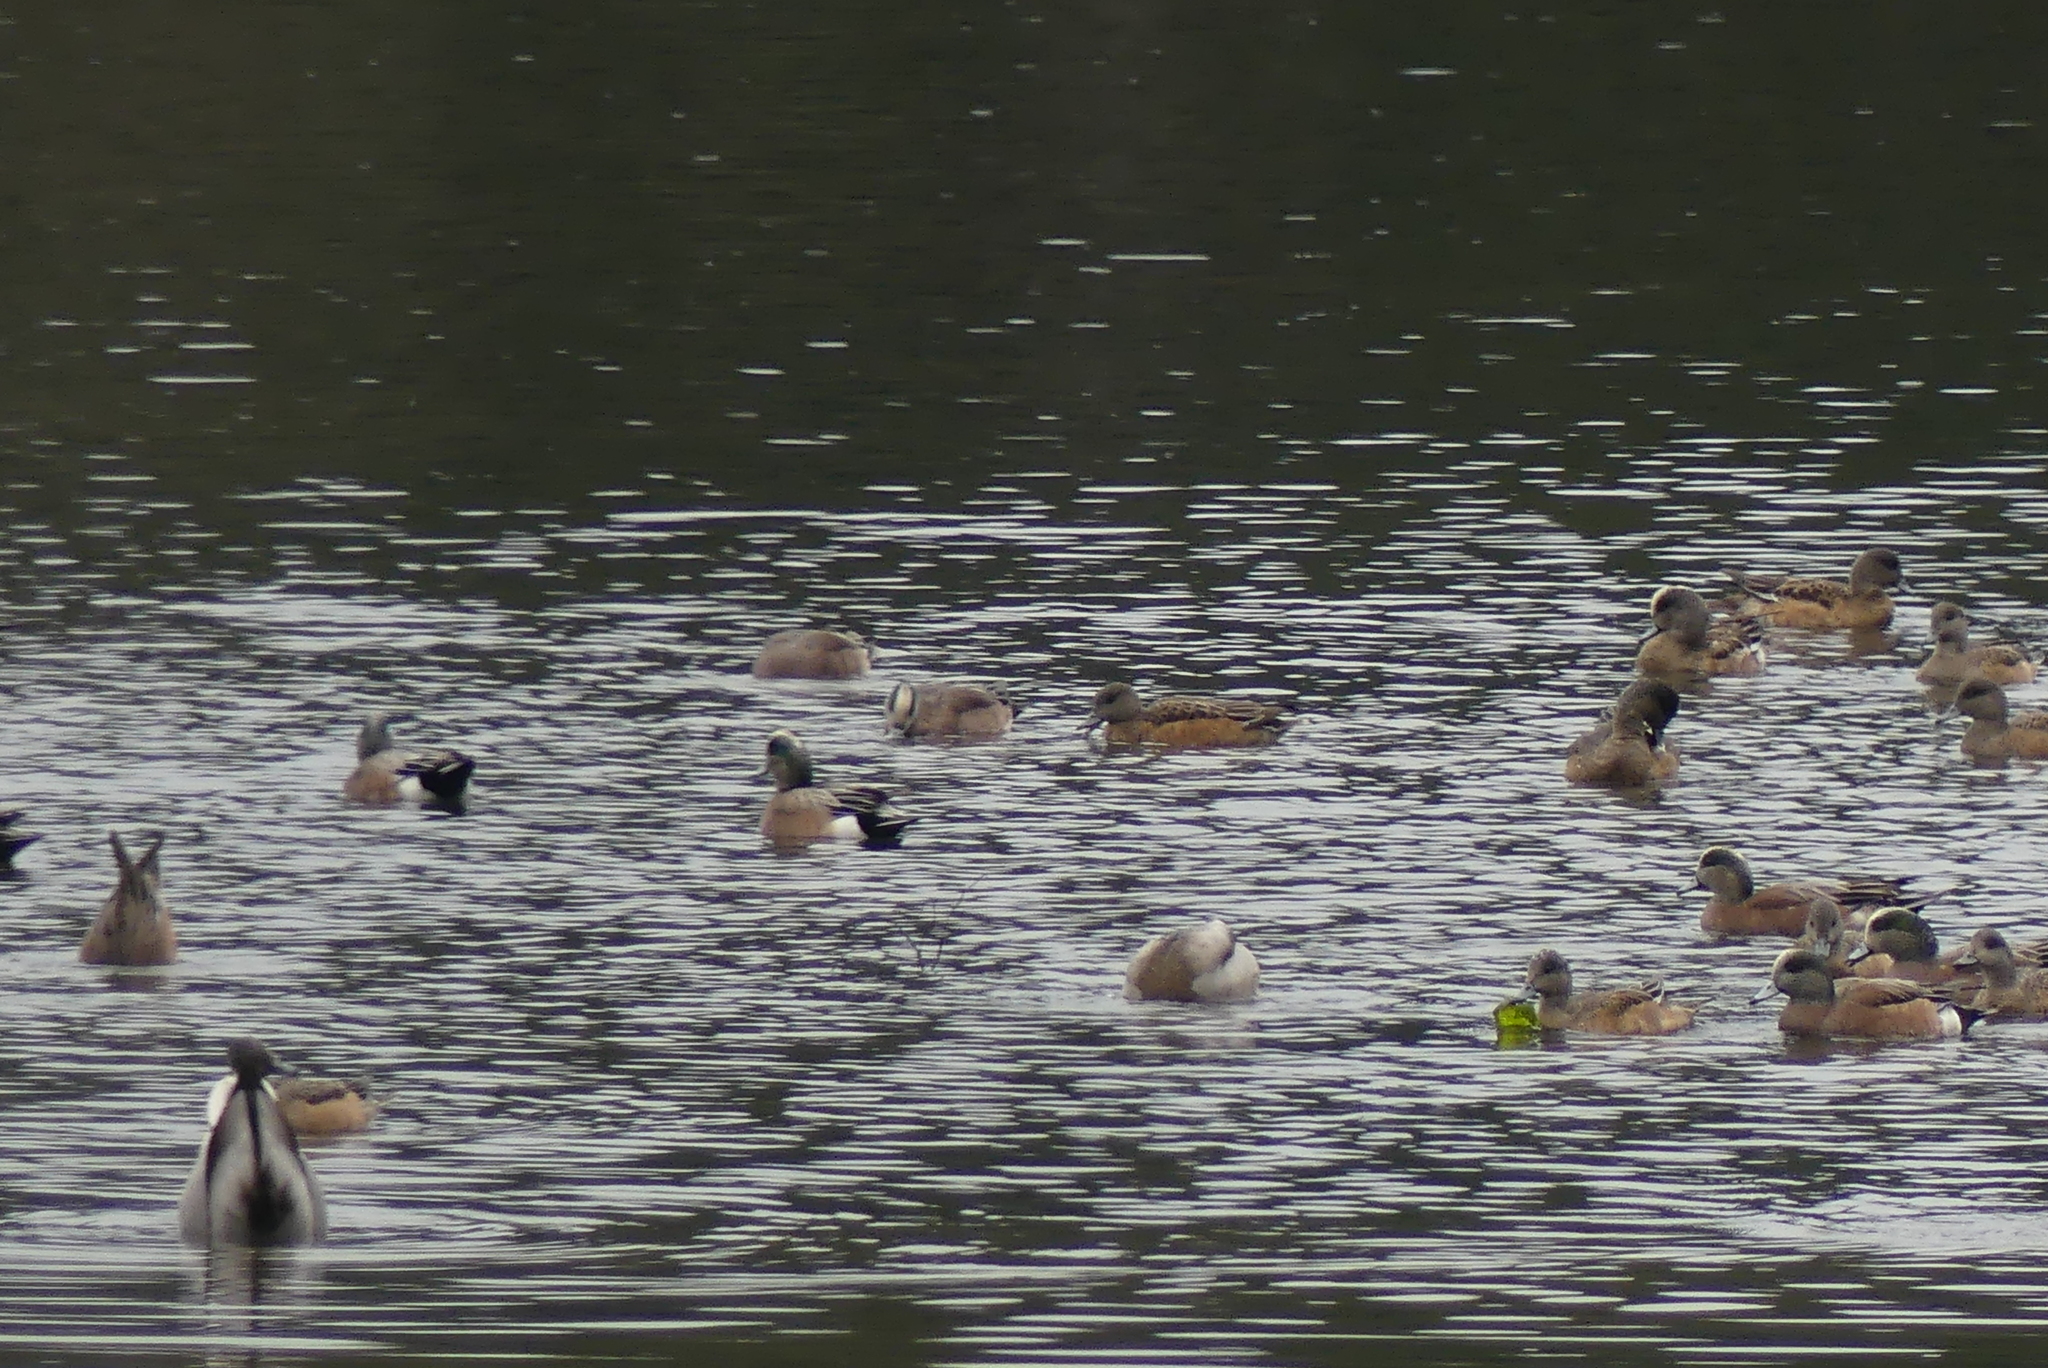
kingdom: Animalia
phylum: Chordata
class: Aves
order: Anseriformes
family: Anatidae
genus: Mareca
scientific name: Mareca americana
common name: American wigeon
